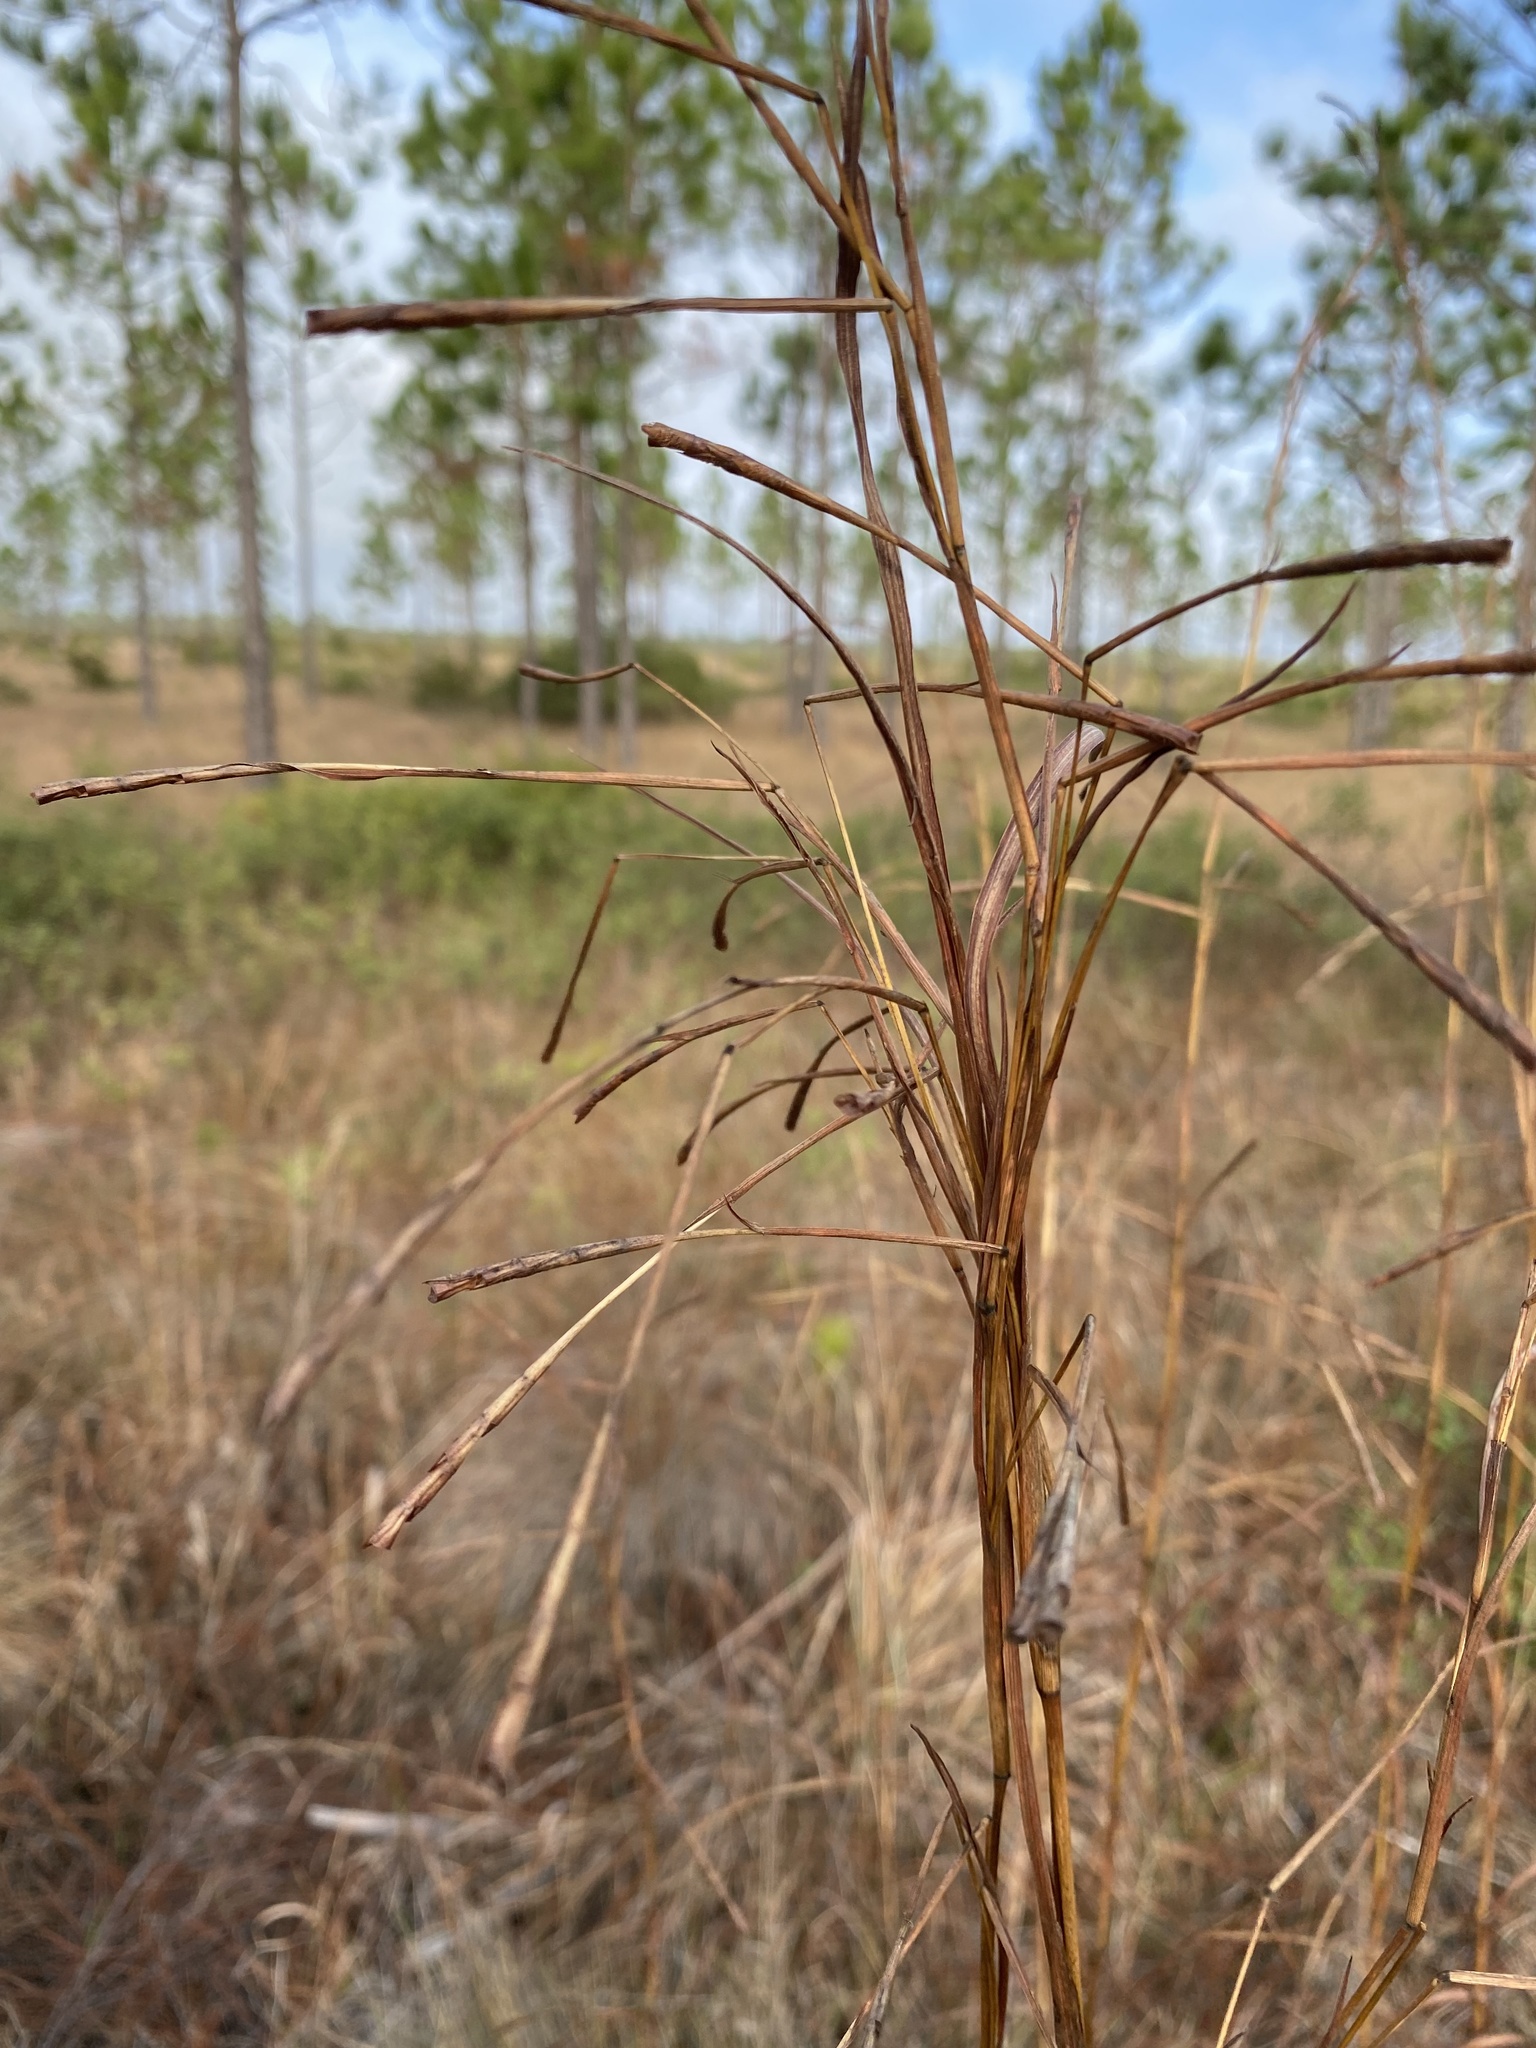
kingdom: Plantae
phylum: Tracheophyta
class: Liliopsida
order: Poales
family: Poaceae
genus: Rottboellia
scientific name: Rottboellia cochinchinensis
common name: Itchgrass
